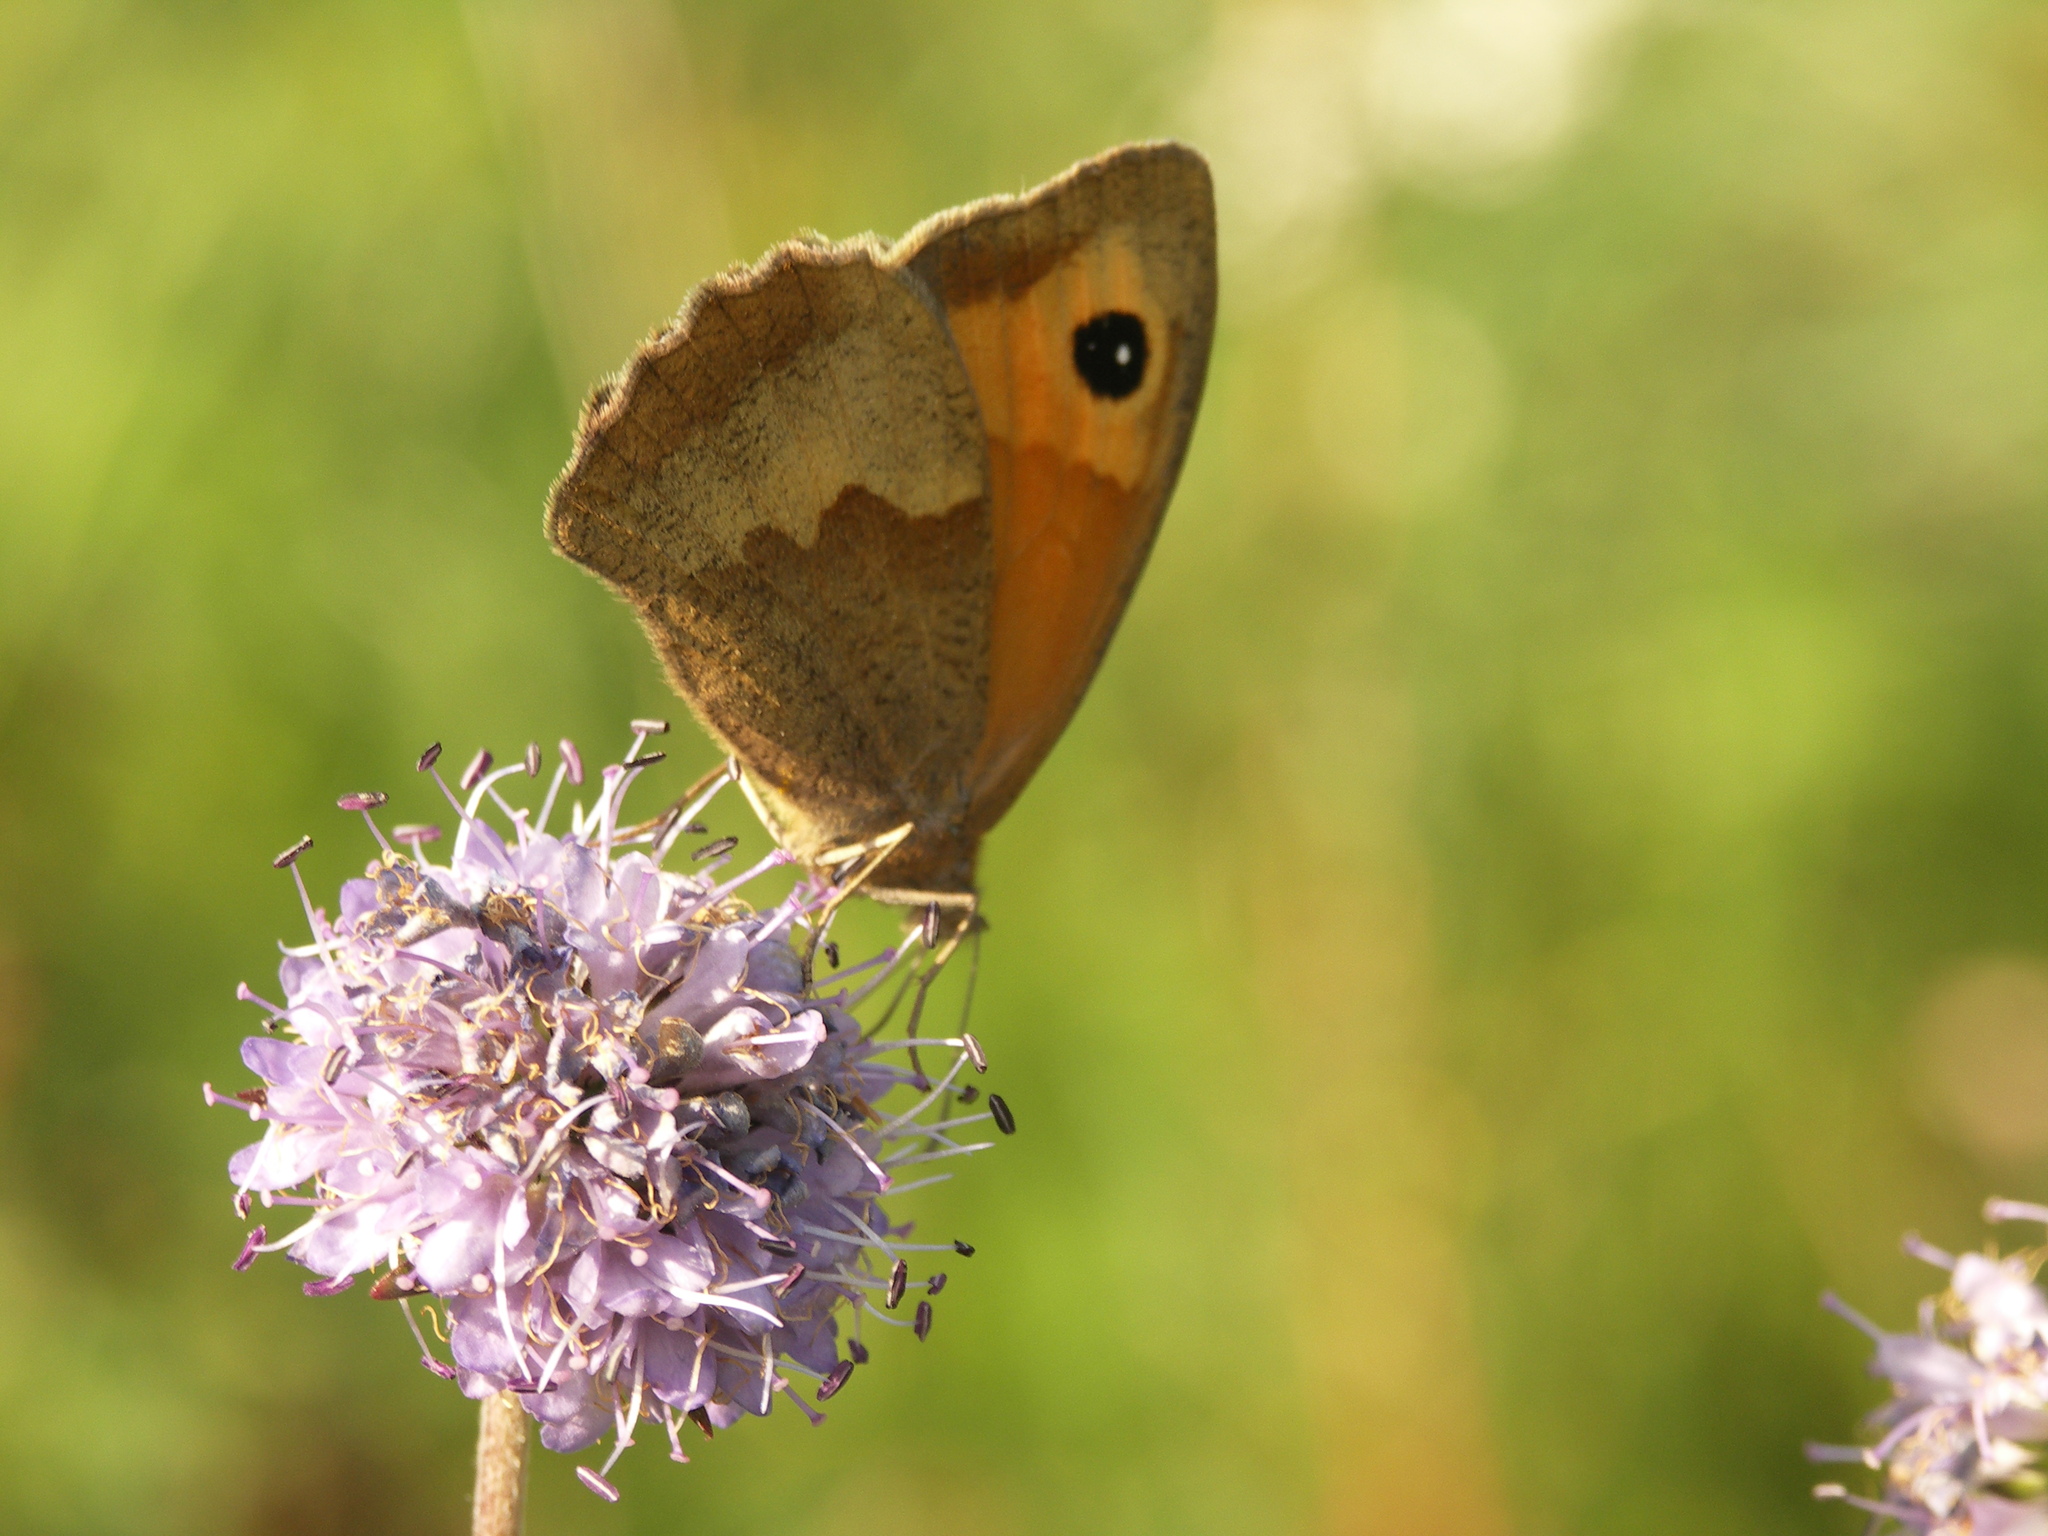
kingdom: Animalia
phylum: Arthropoda
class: Insecta
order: Lepidoptera
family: Nymphalidae
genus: Maniola
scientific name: Maniola jurtina
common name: Meadow brown
